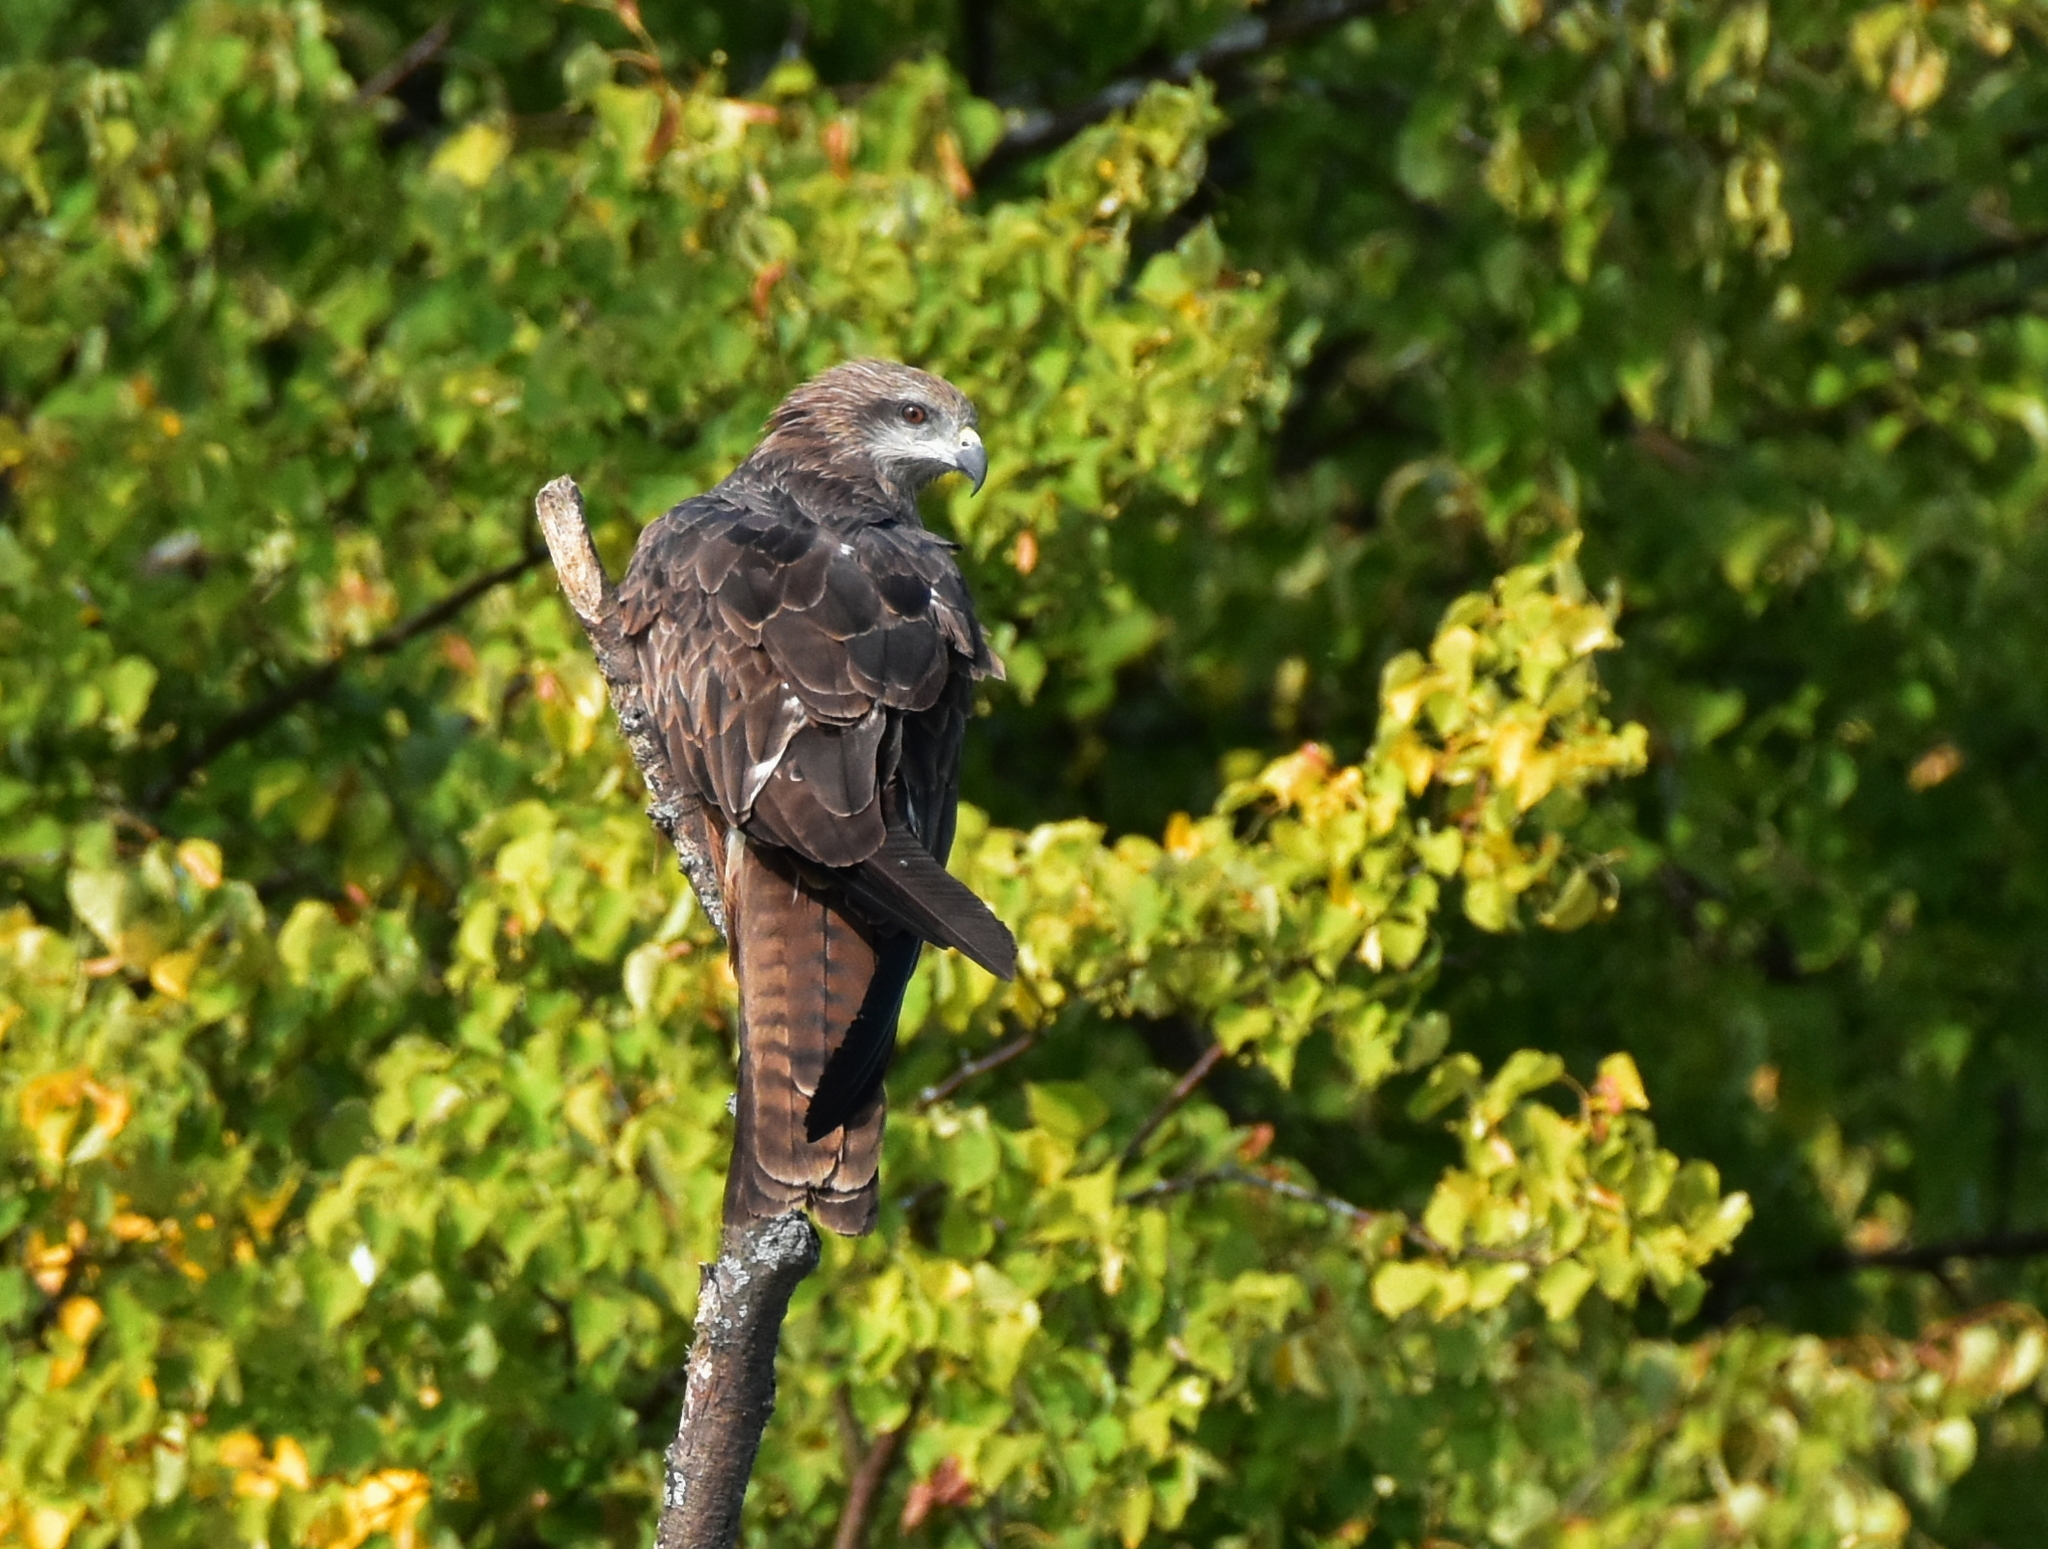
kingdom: Animalia
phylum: Chordata
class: Aves
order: Accipitriformes
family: Accipitridae
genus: Milvus
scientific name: Milvus migrans
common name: Black kite
